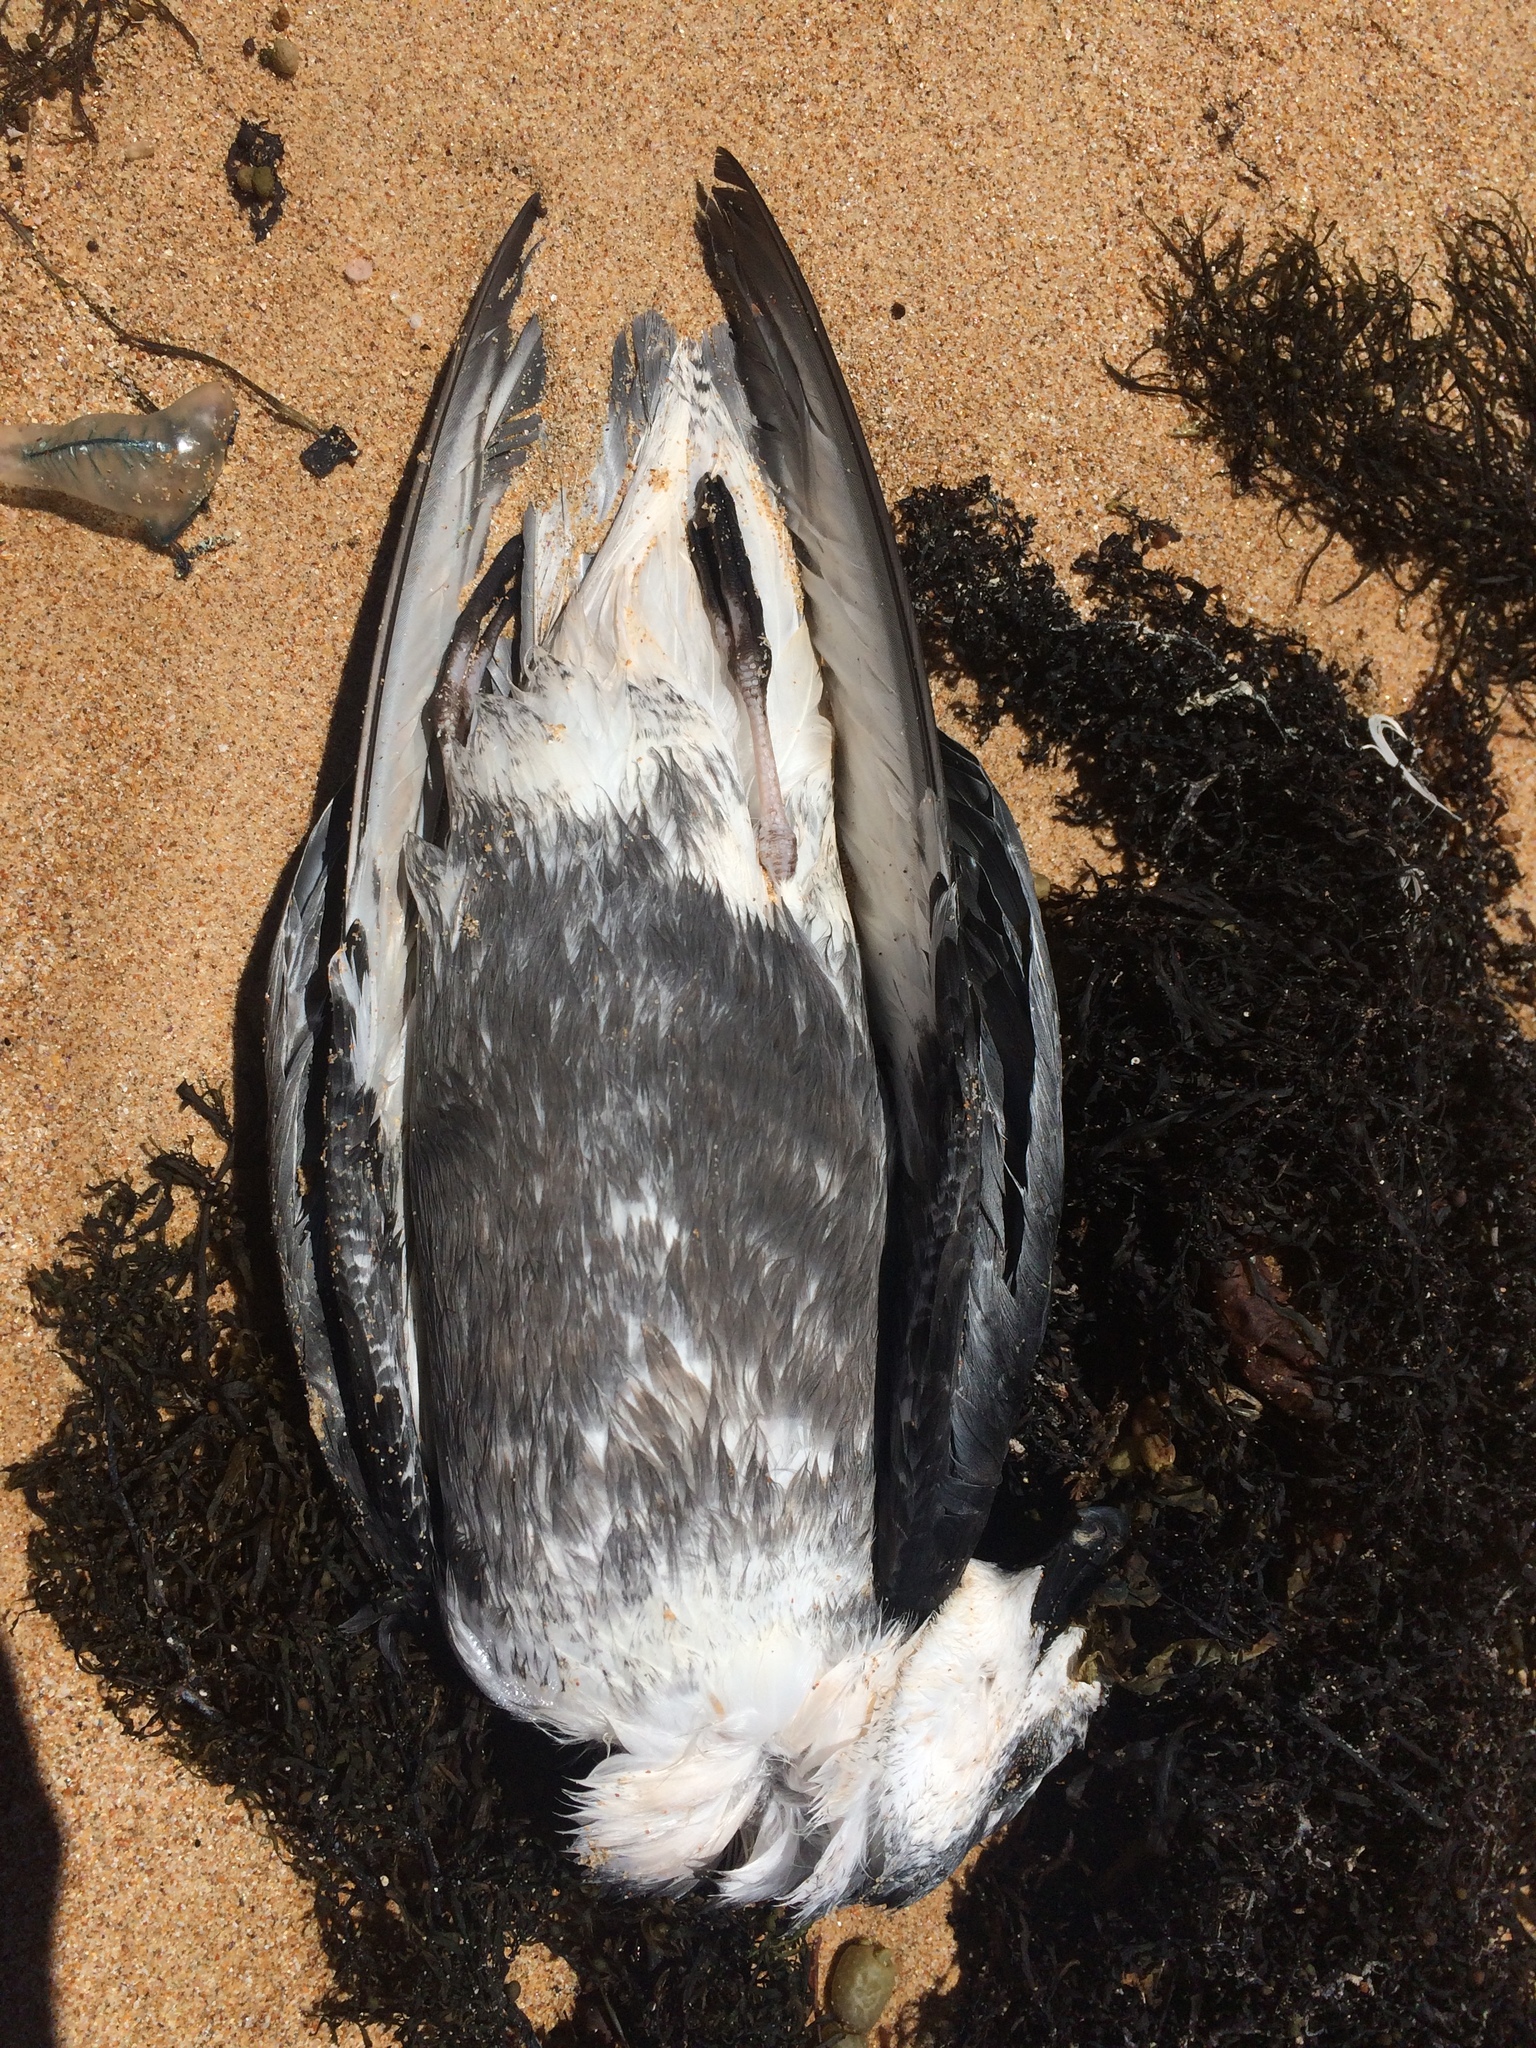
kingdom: Animalia
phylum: Chordata
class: Aves
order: Procellariiformes
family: Procellariidae
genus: Pterodroma
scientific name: Pterodroma inexpectata
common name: Mottled petrel
